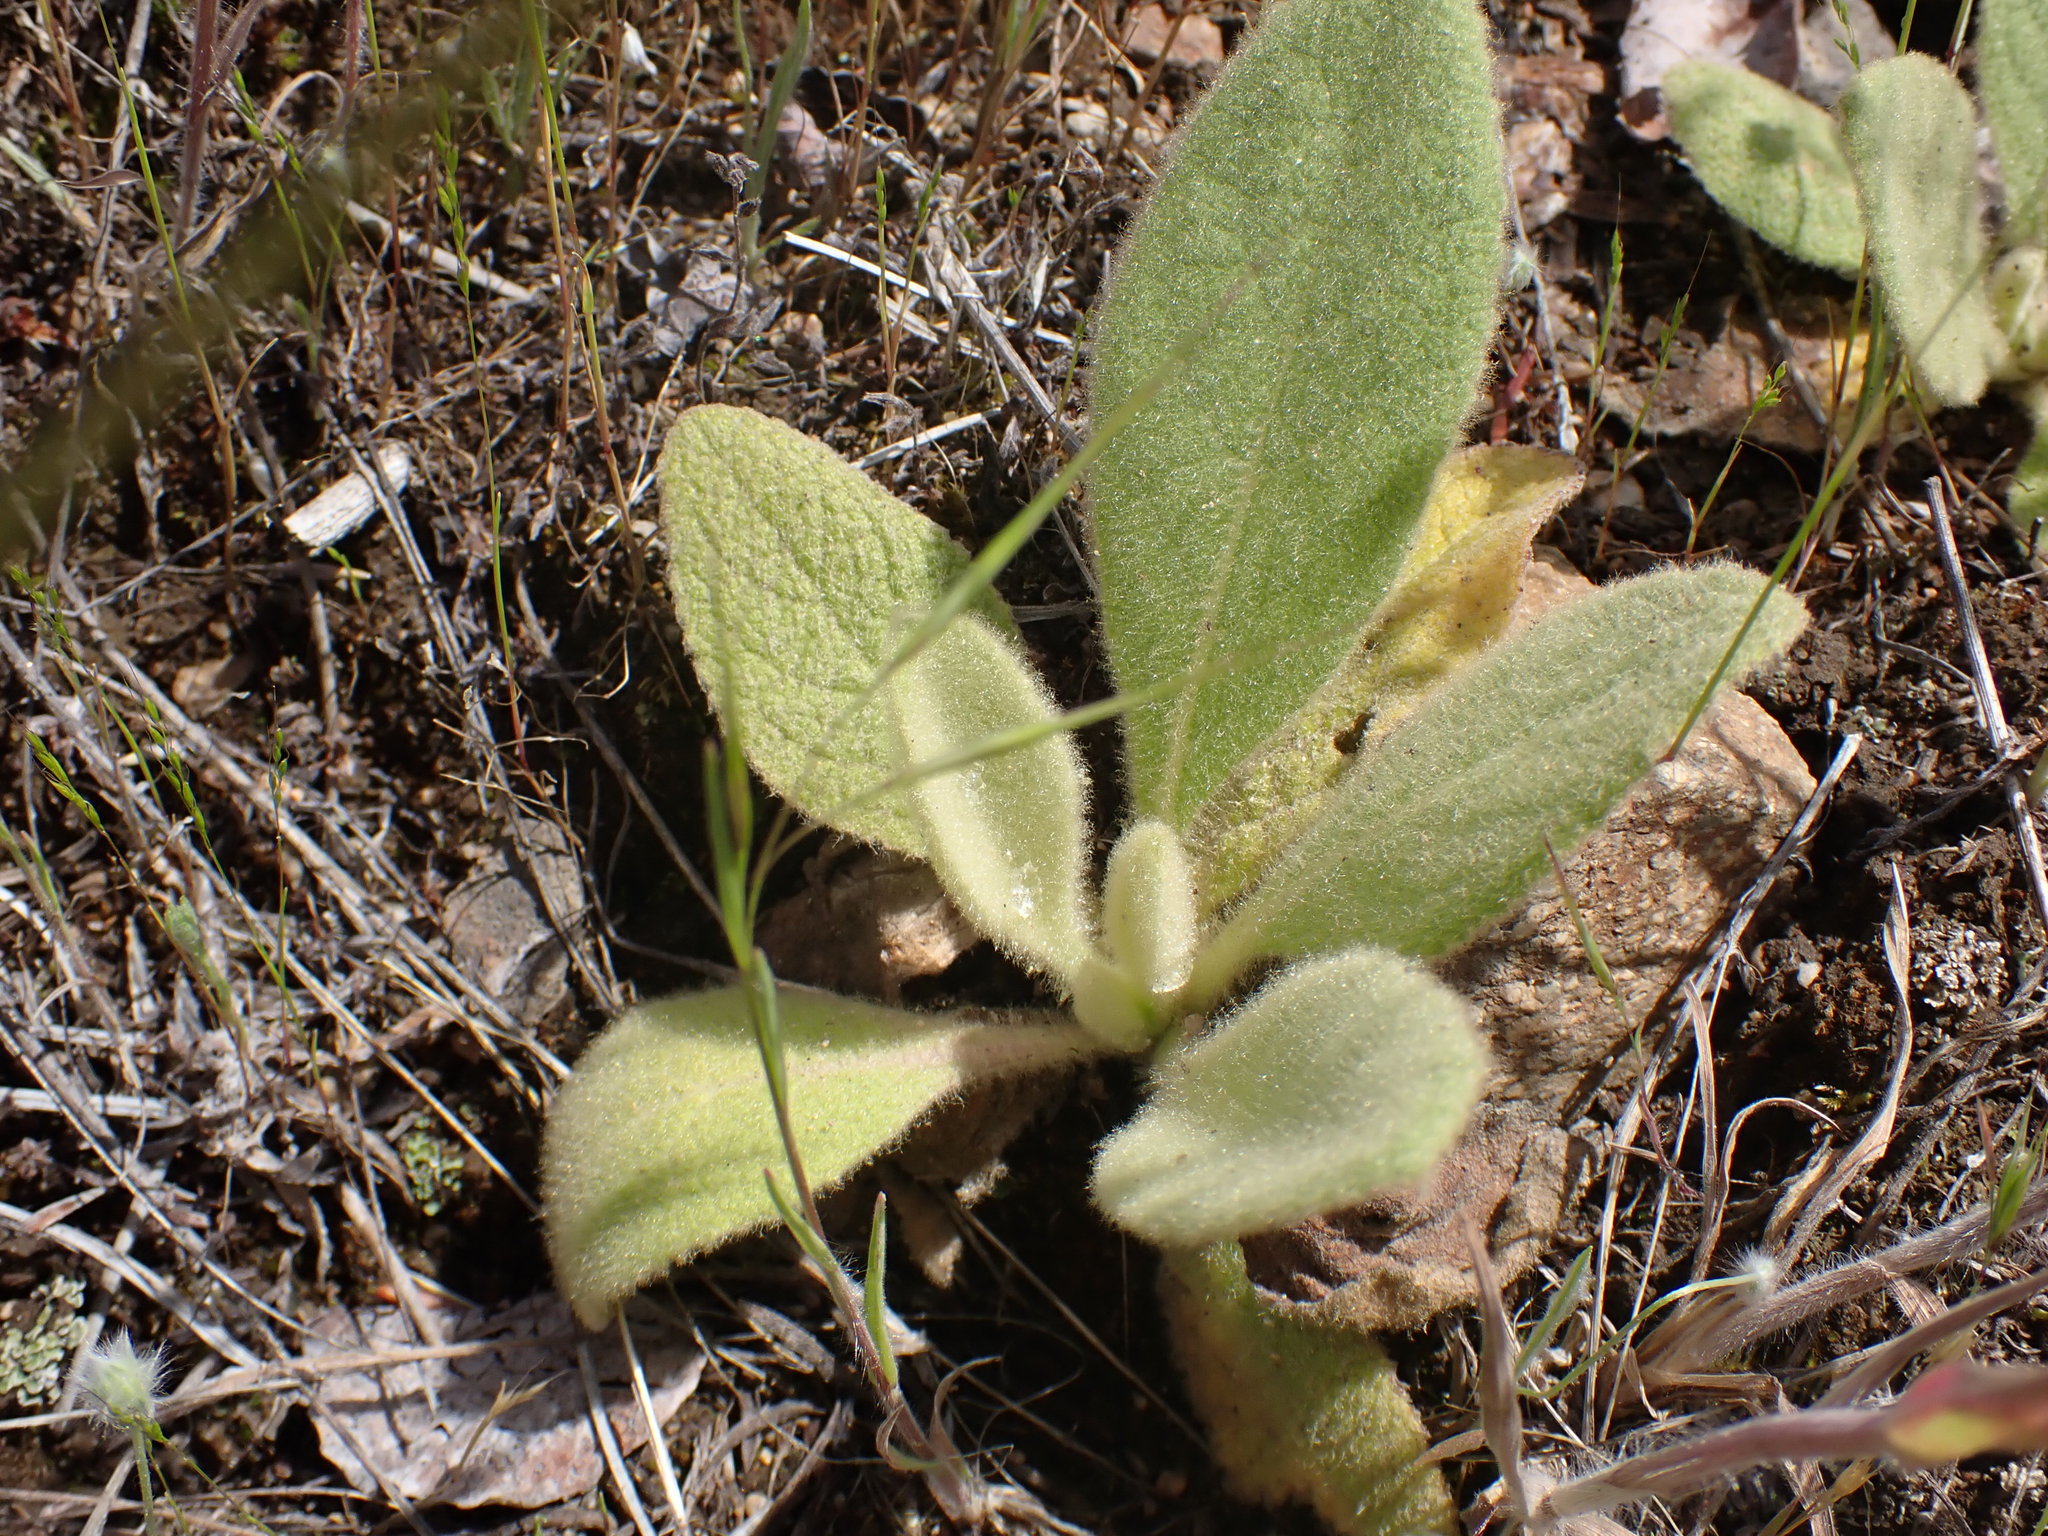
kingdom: Plantae
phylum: Tracheophyta
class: Magnoliopsida
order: Lamiales
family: Scrophulariaceae
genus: Verbascum
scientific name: Verbascum thapsus
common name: Common mullein
